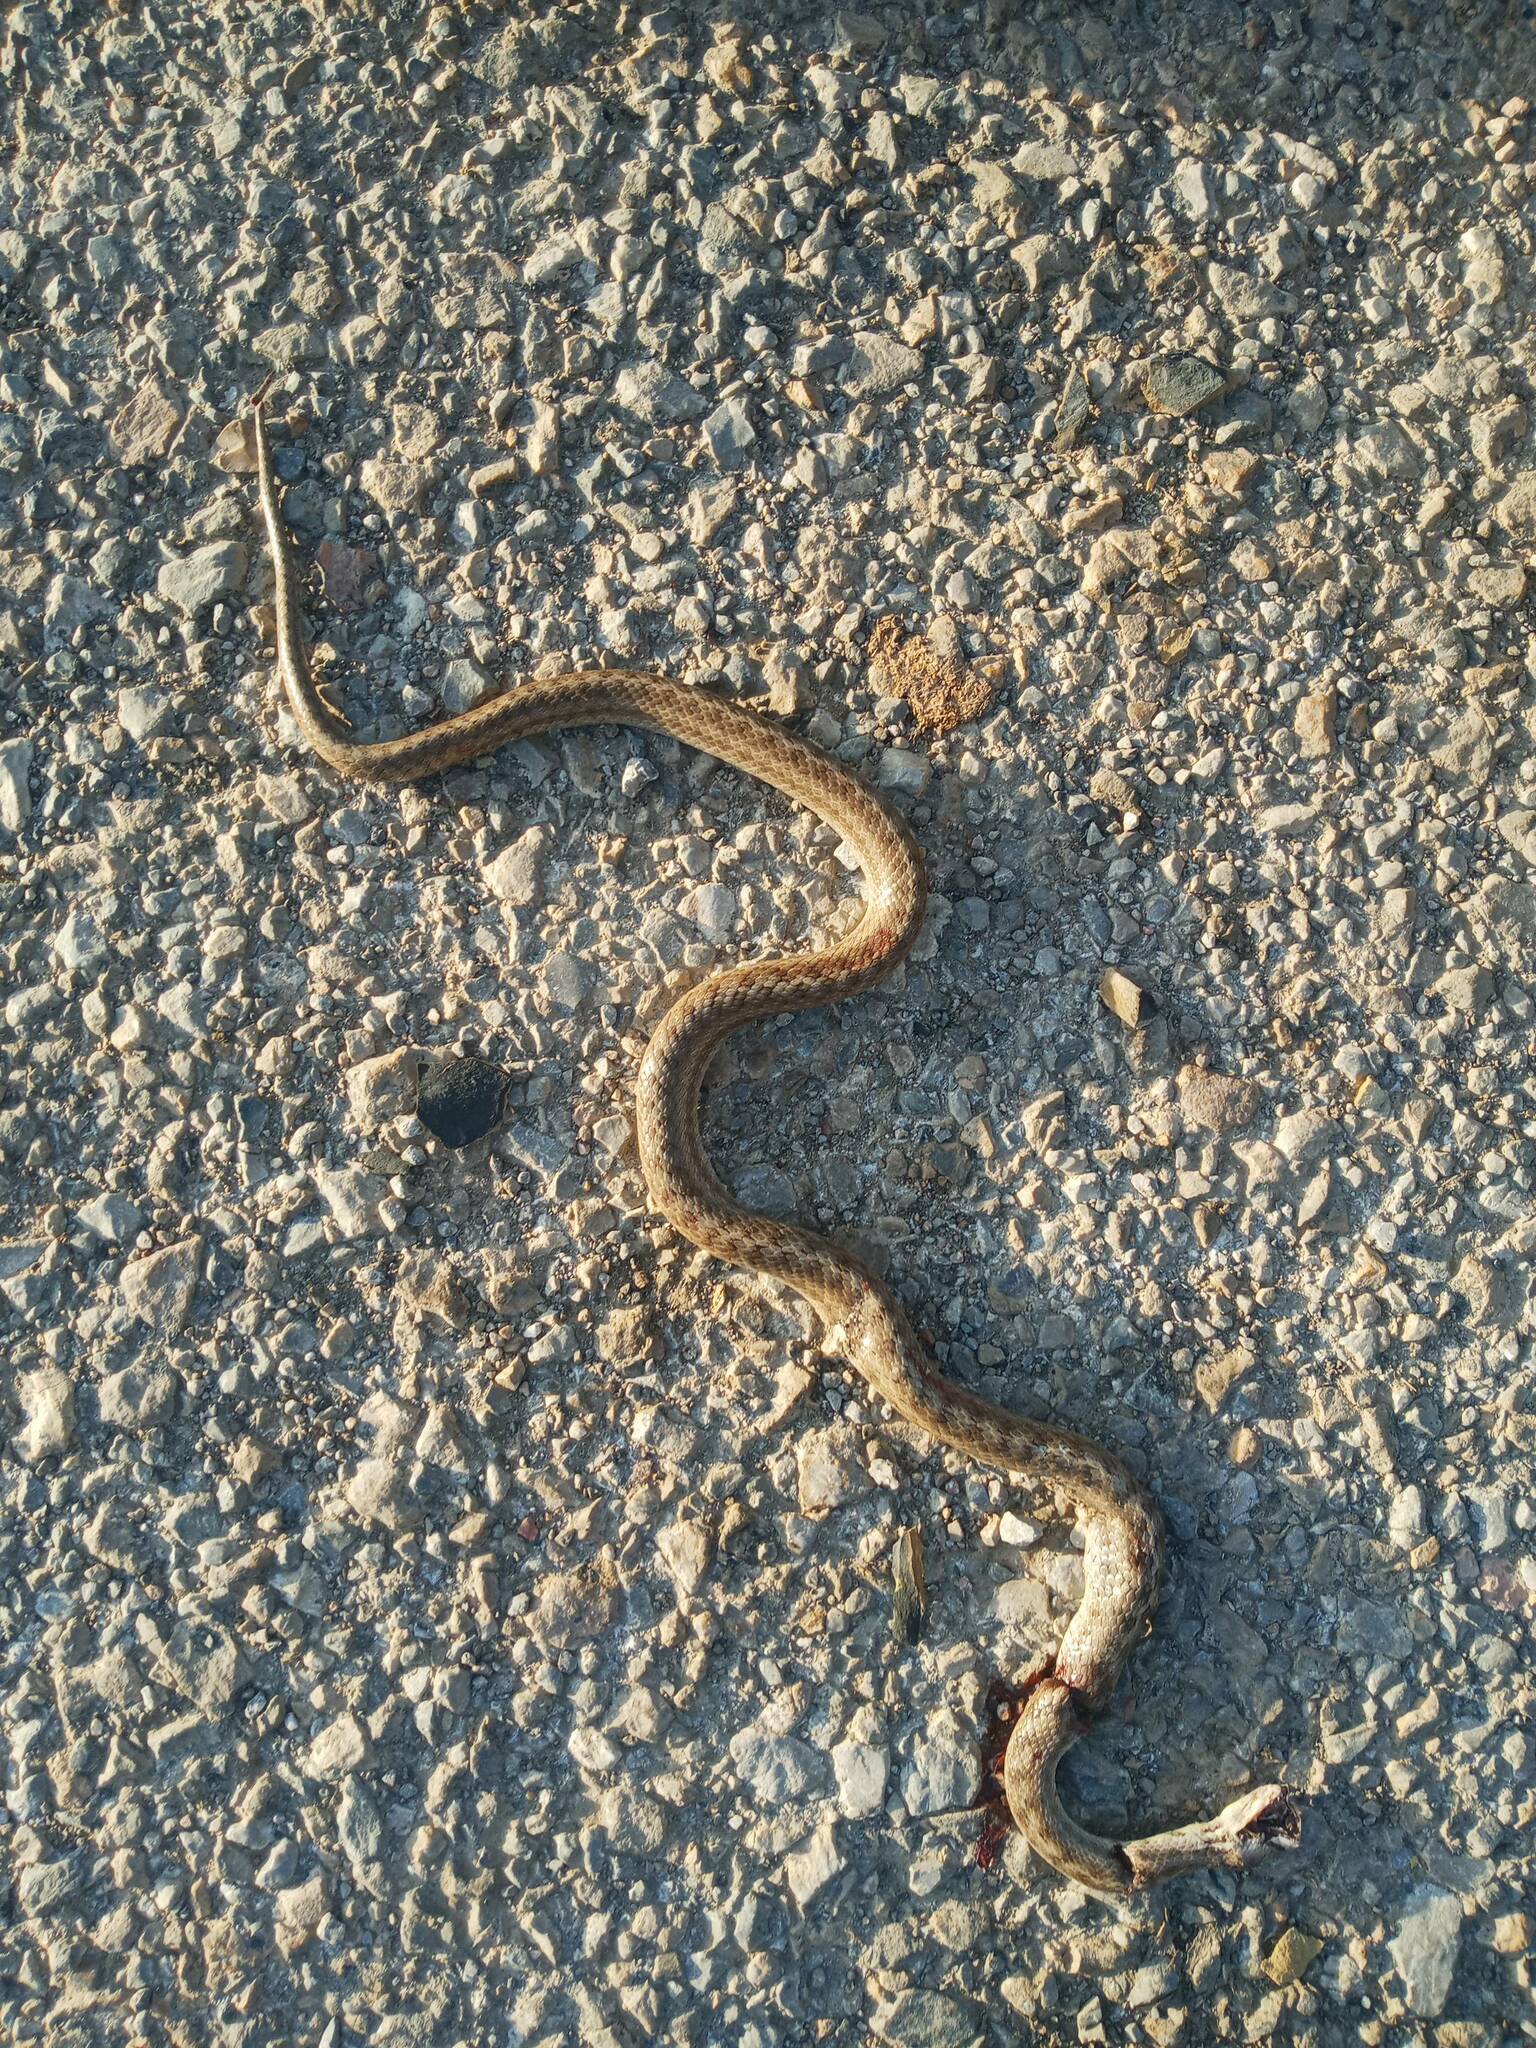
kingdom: Animalia
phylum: Chordata
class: Squamata
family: Colubridae
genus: Coronella
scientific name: Coronella girondica
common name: Southern smooth snake
